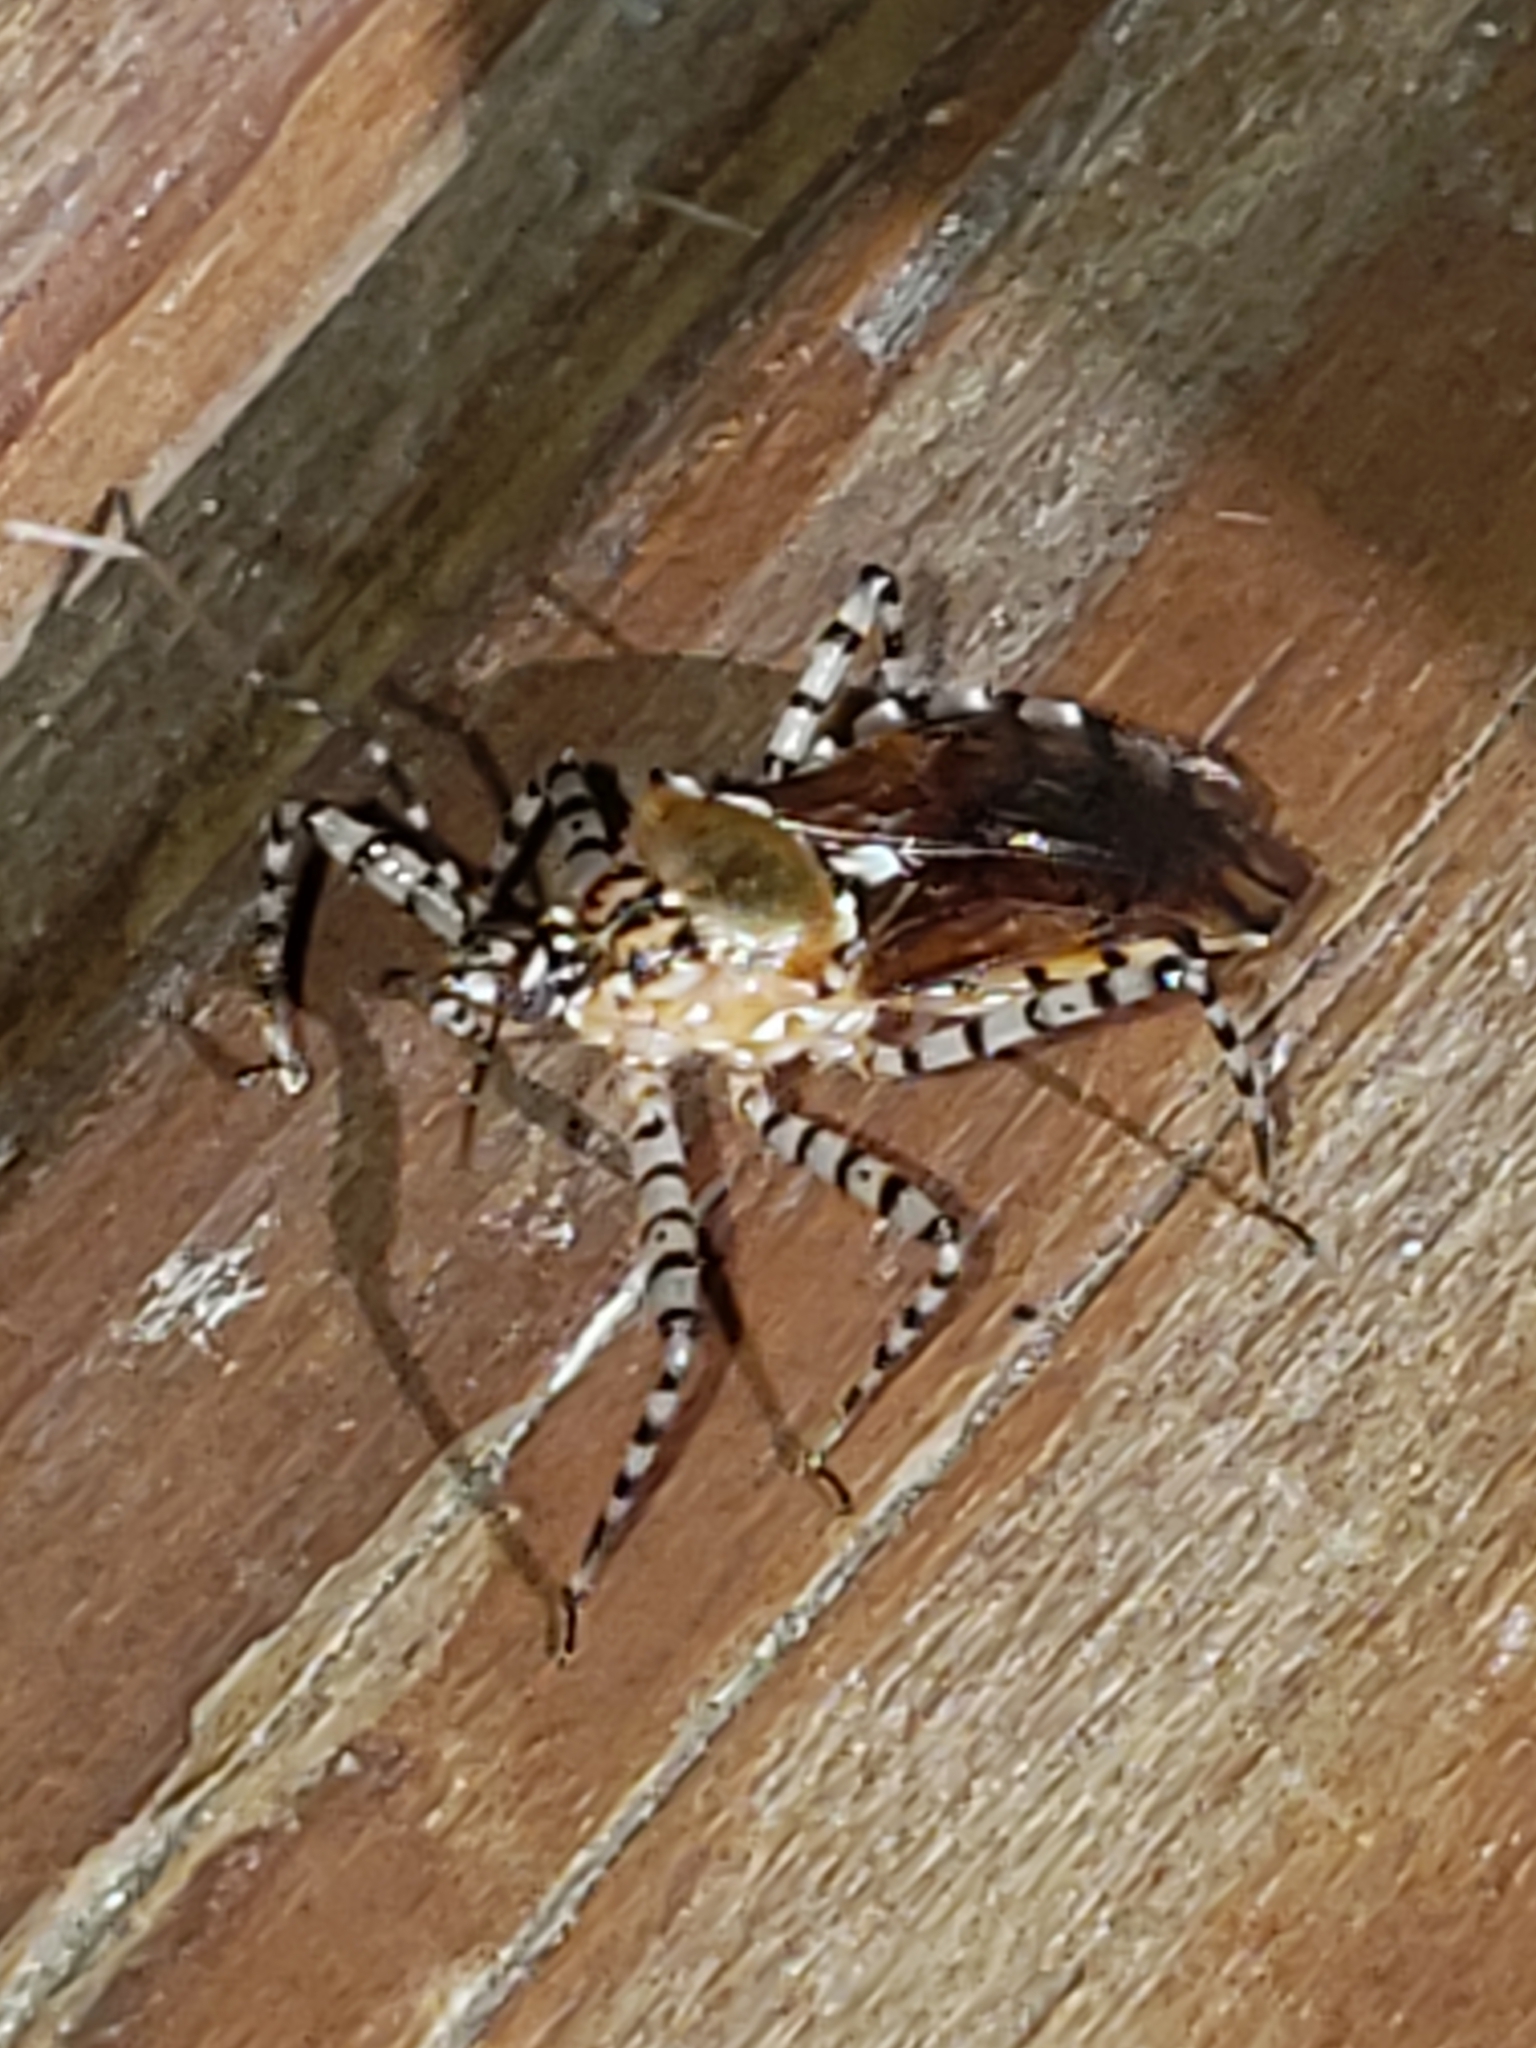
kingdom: Animalia
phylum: Arthropoda
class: Insecta
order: Hemiptera
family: Reduviidae
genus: Pselliopus
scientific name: Pselliopus cinctus
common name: Ringed assassin bug
